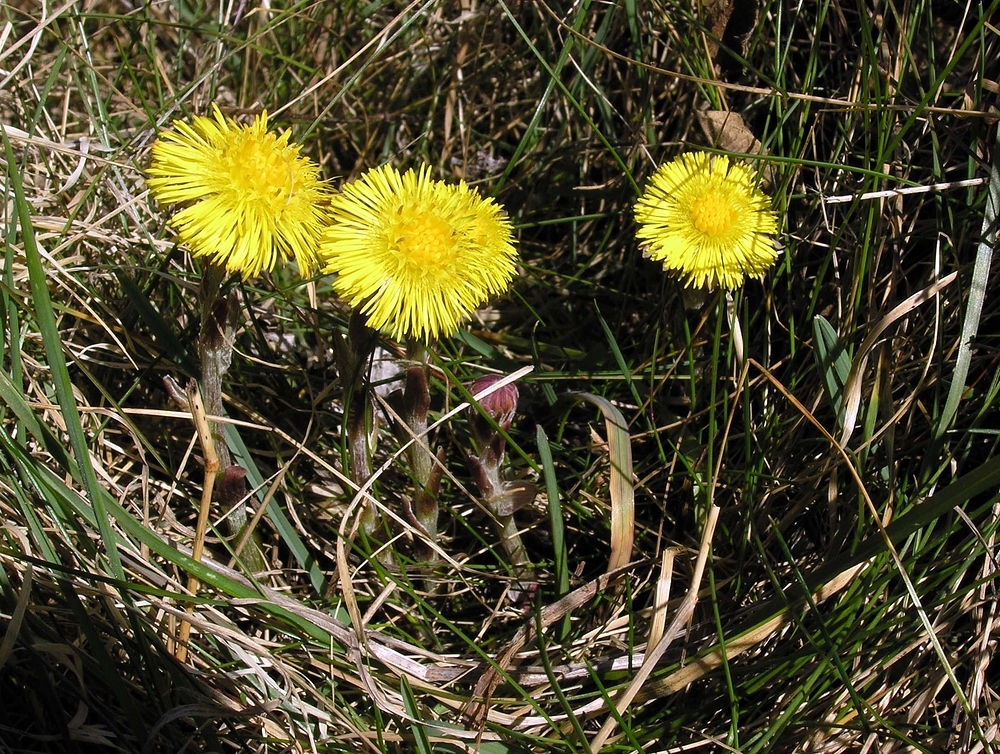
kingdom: Plantae
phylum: Tracheophyta
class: Magnoliopsida
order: Asterales
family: Asteraceae
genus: Tussilago
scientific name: Tussilago farfara
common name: Coltsfoot
